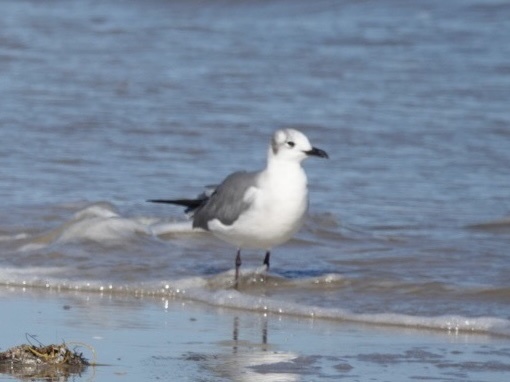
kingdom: Animalia
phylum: Chordata
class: Aves
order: Charadriiformes
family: Laridae
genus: Leucophaeus
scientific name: Leucophaeus atricilla
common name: Laughing gull
